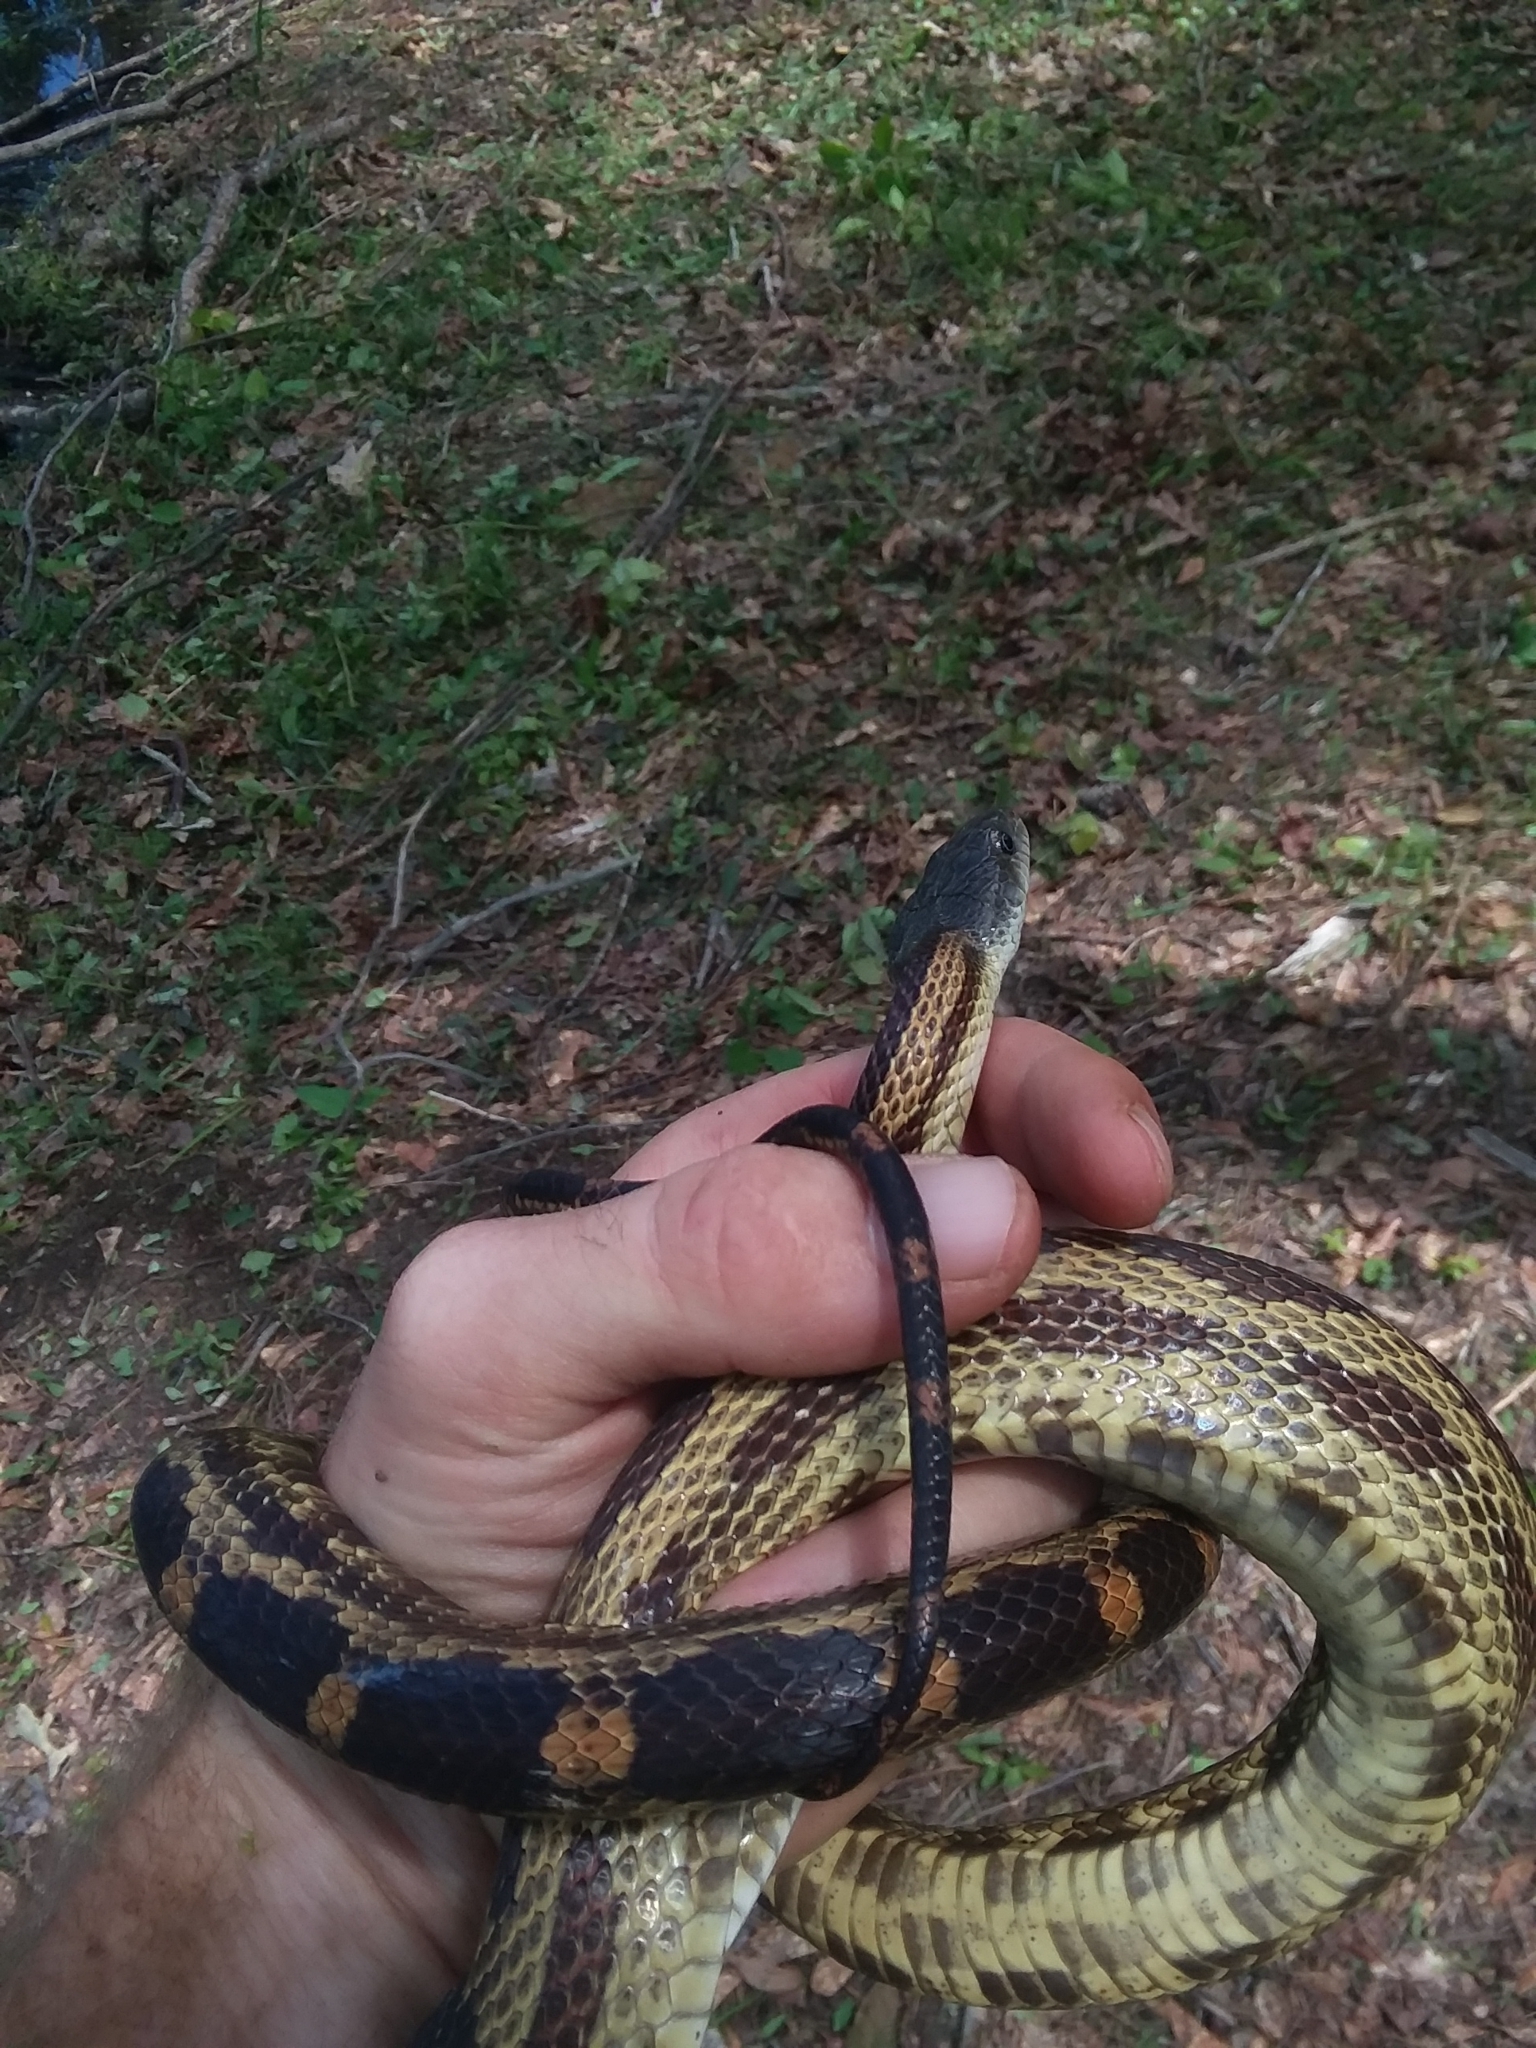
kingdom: Animalia
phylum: Chordata
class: Squamata
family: Colubridae
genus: Pantherophis
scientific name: Pantherophis spiloides
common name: Gray rat snake
